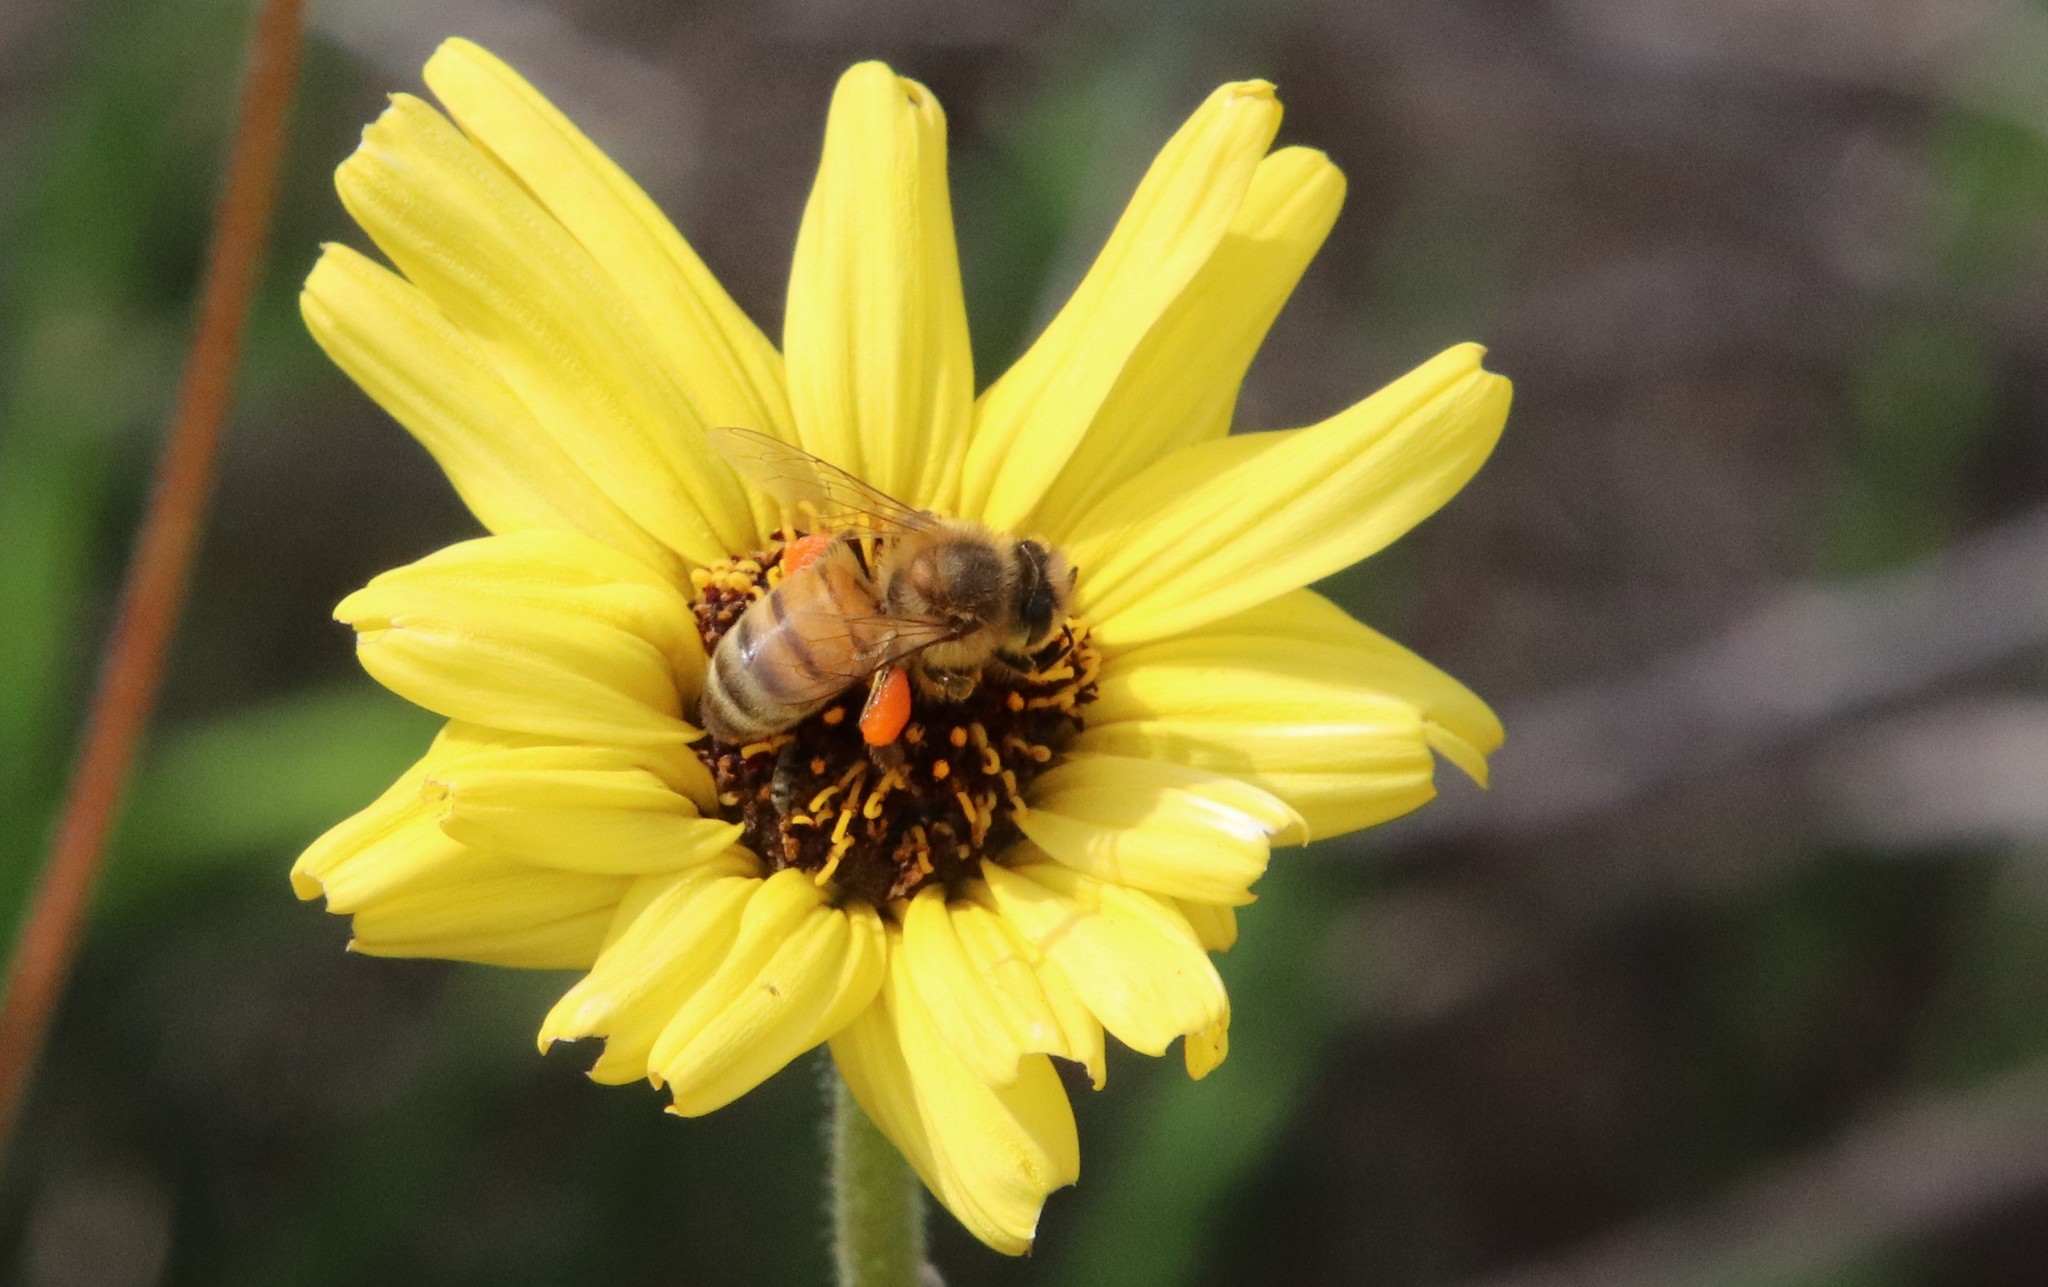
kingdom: Animalia
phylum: Arthropoda
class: Insecta
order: Hymenoptera
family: Apidae
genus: Apis
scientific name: Apis mellifera
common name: Honey bee
